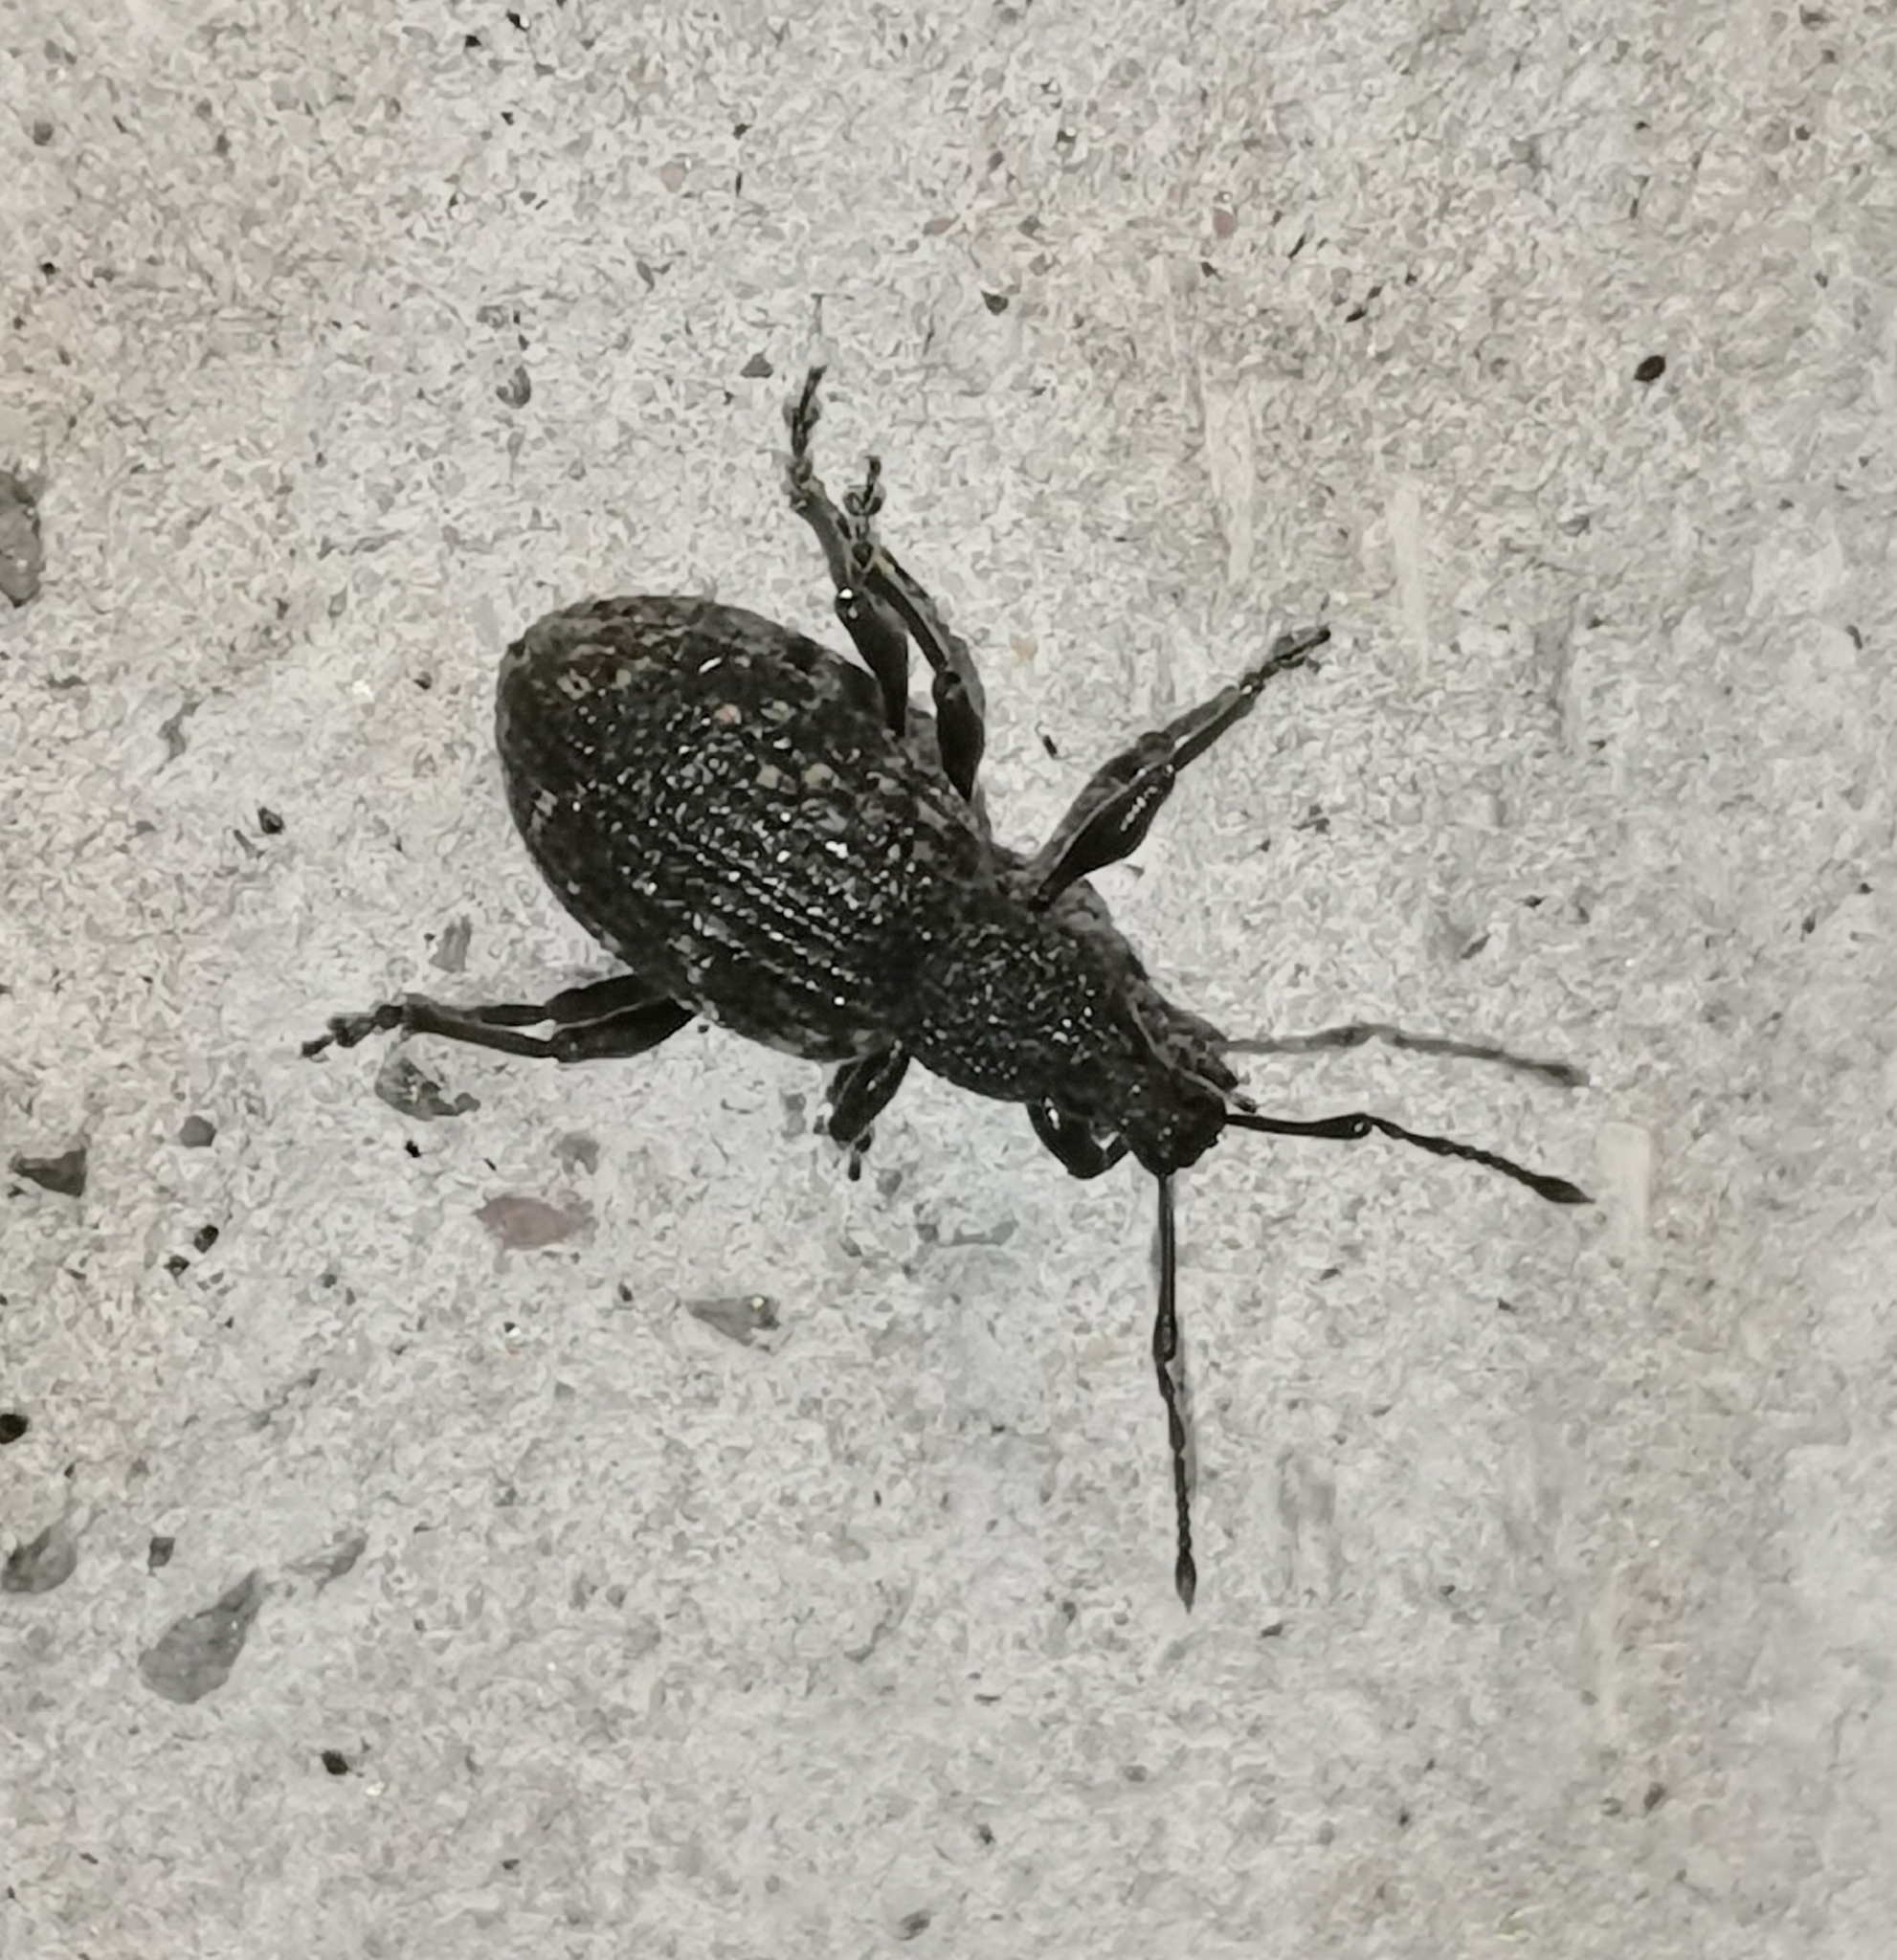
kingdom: Animalia
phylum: Arthropoda
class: Insecta
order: Coleoptera
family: Curculionidae
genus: Otiorhynchus
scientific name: Otiorhynchus sulcatus
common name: Black vine weevil
